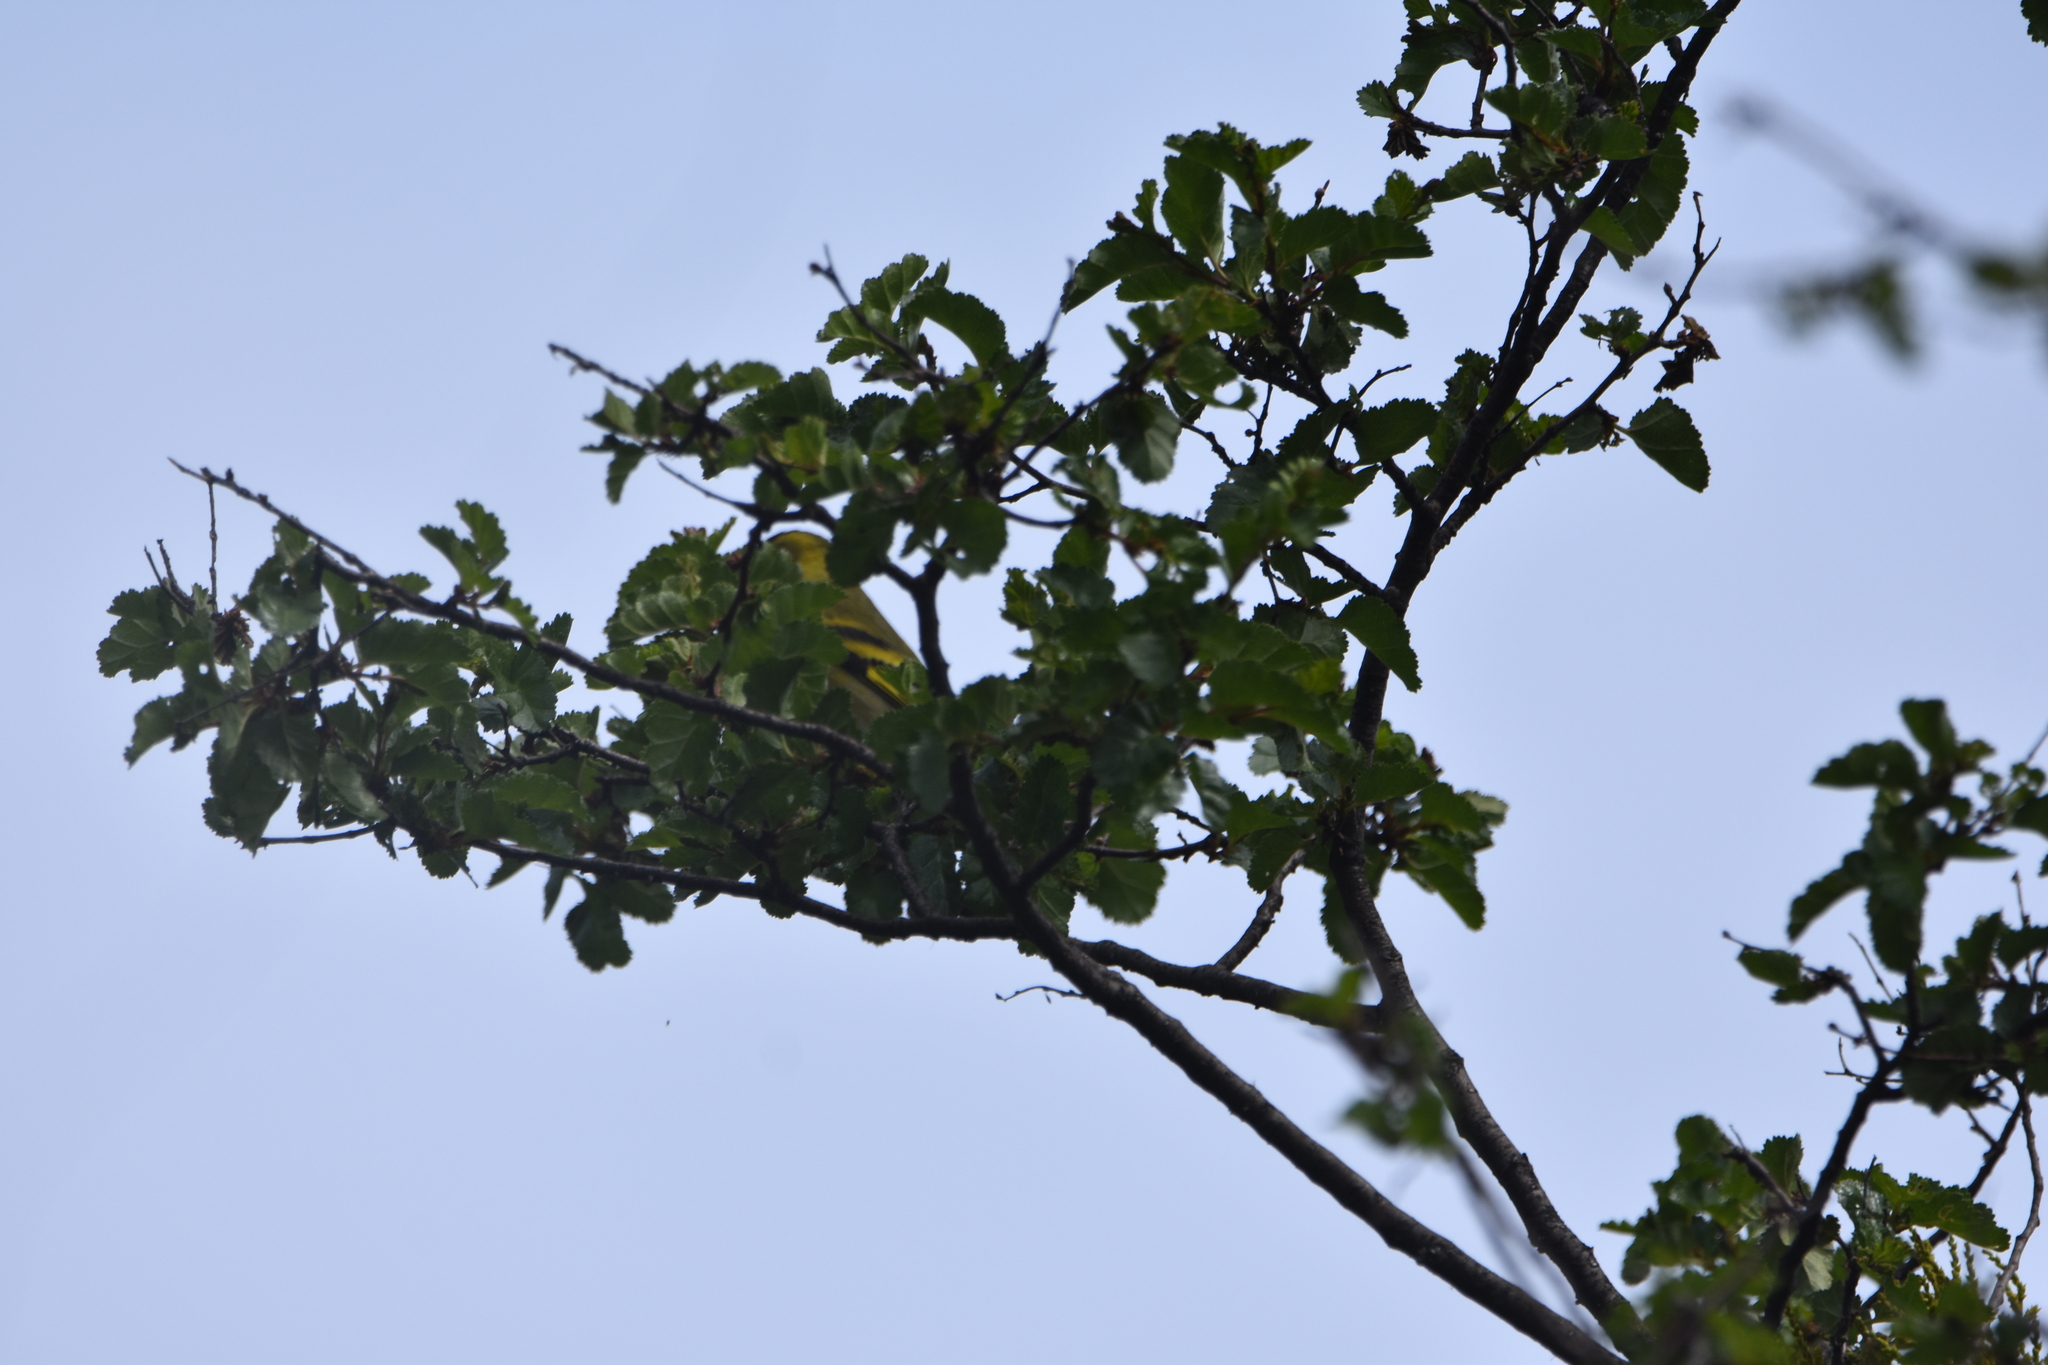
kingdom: Animalia
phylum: Chordata
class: Aves
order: Passeriformes
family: Fringillidae
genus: Spinus
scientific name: Spinus barbatus
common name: Black-chinned siskin
